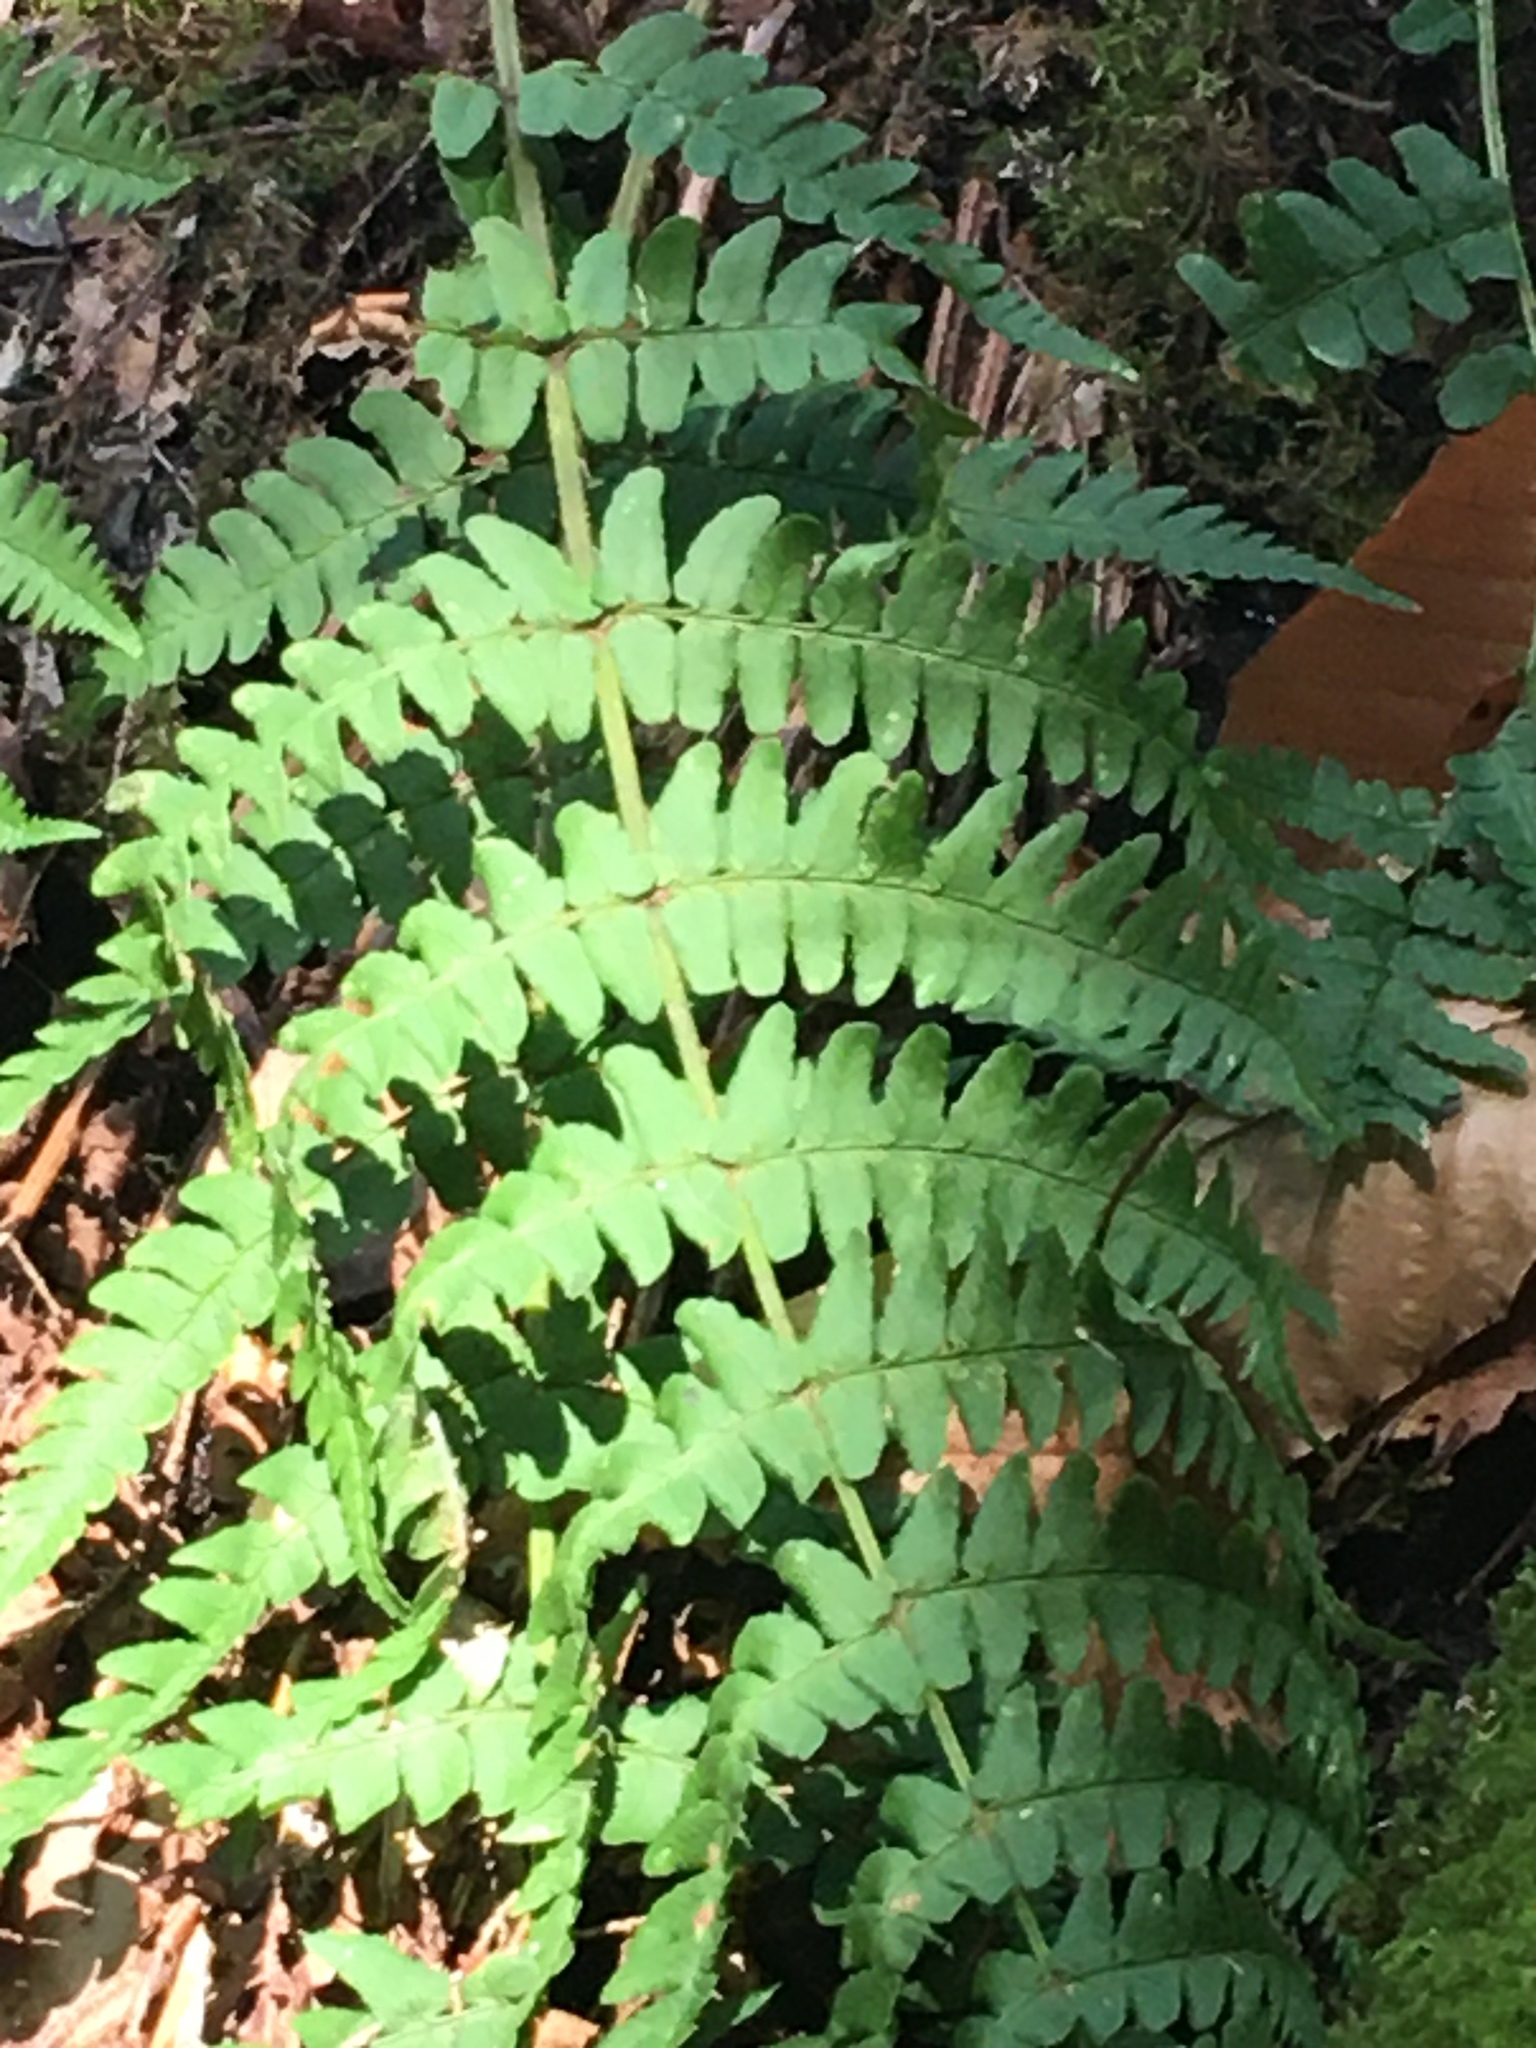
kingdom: Plantae
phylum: Tracheophyta
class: Polypodiopsida
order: Polypodiales
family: Dryopteridaceae
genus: Dryopteris
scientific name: Dryopteris marginalis
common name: Marginal wood fern
